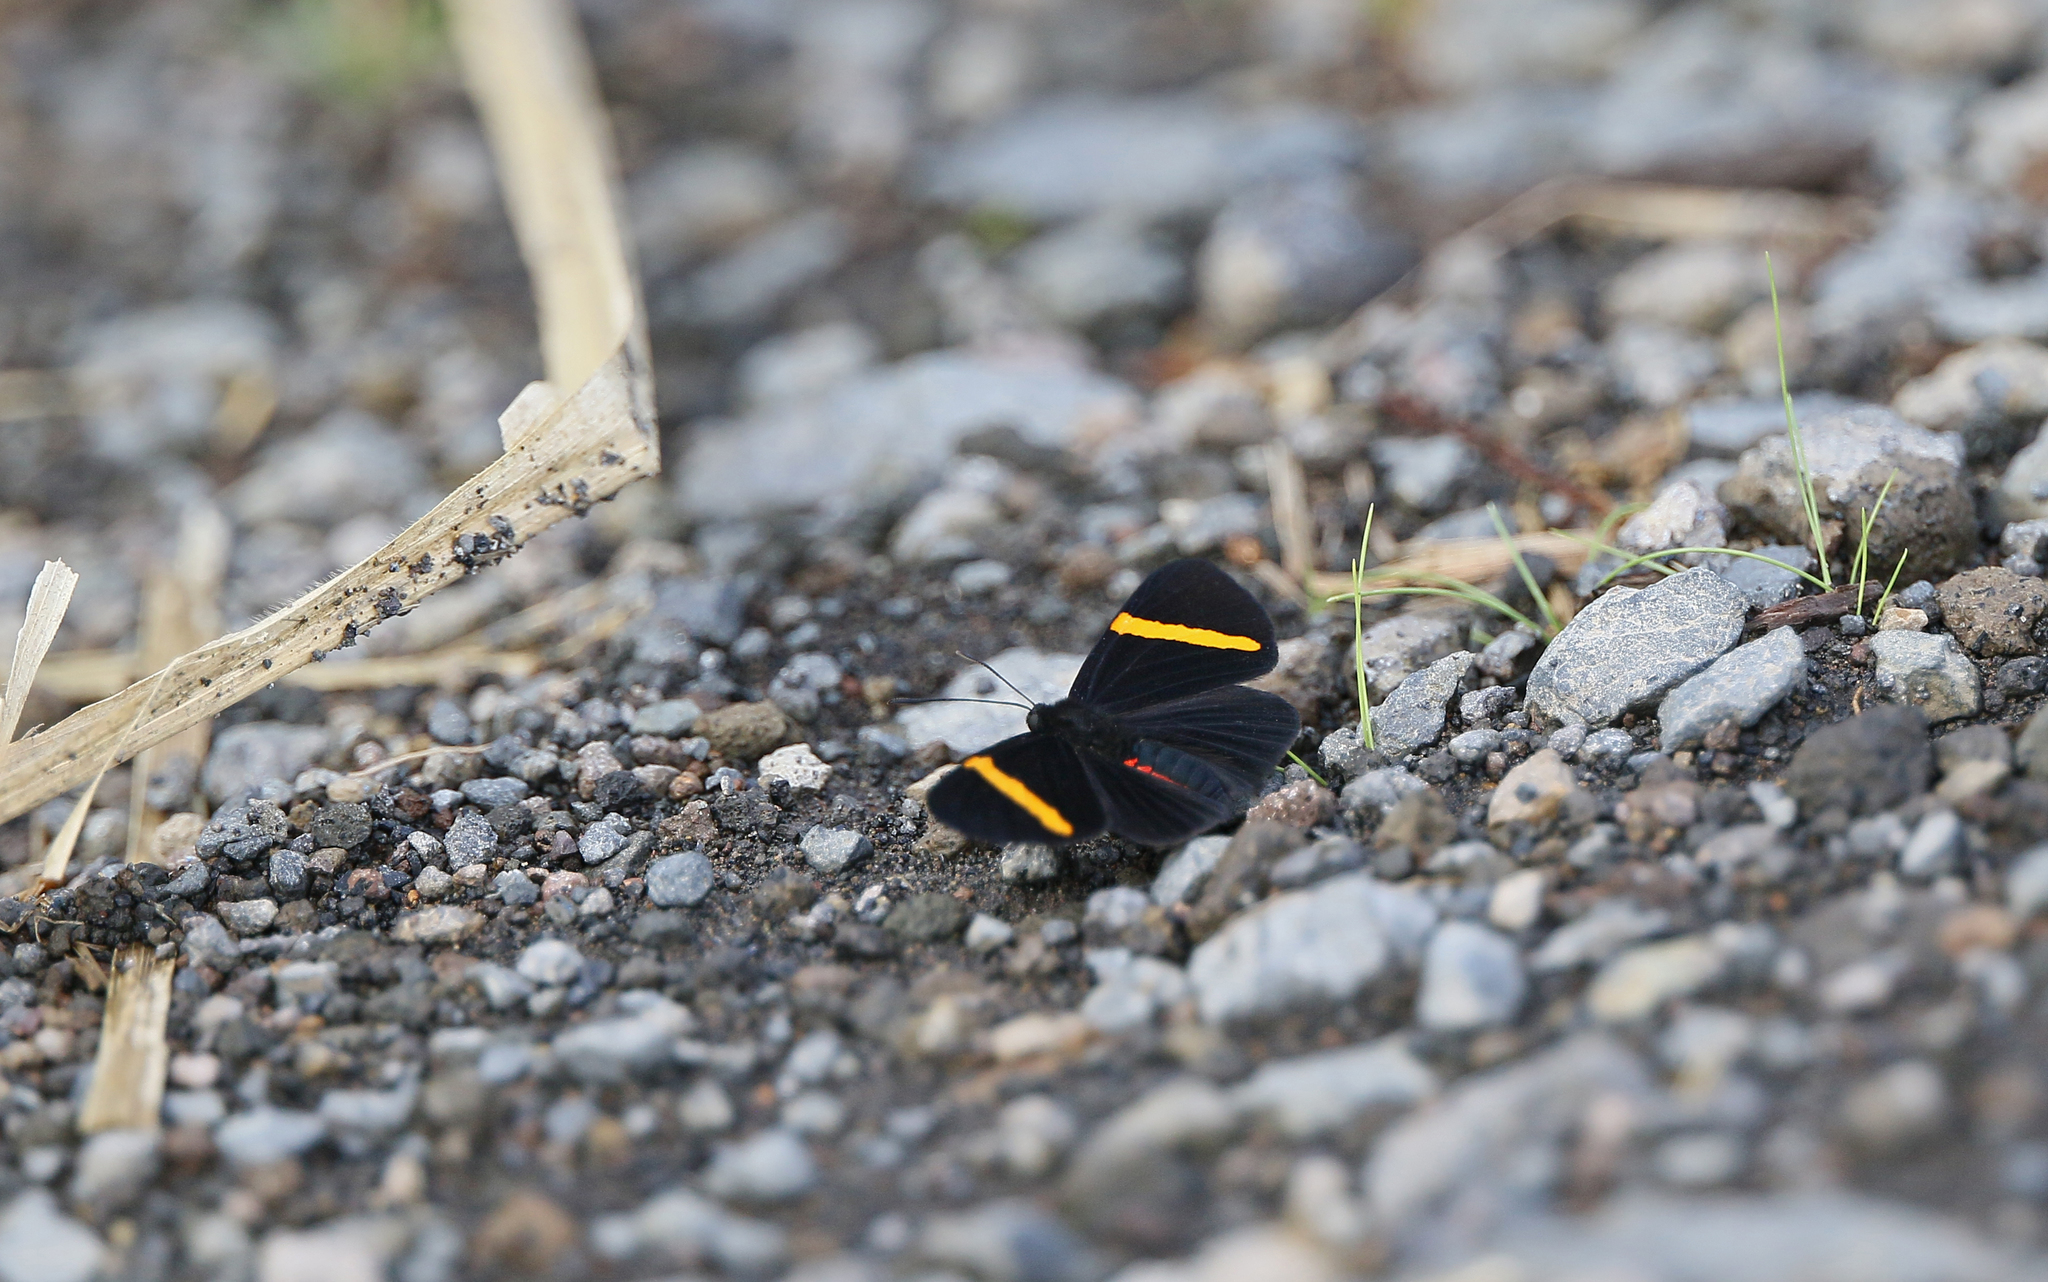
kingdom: Animalia
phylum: Arthropoda
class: Insecta
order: Lepidoptera
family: Lycaenidae
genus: Melanis
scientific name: Melanis
